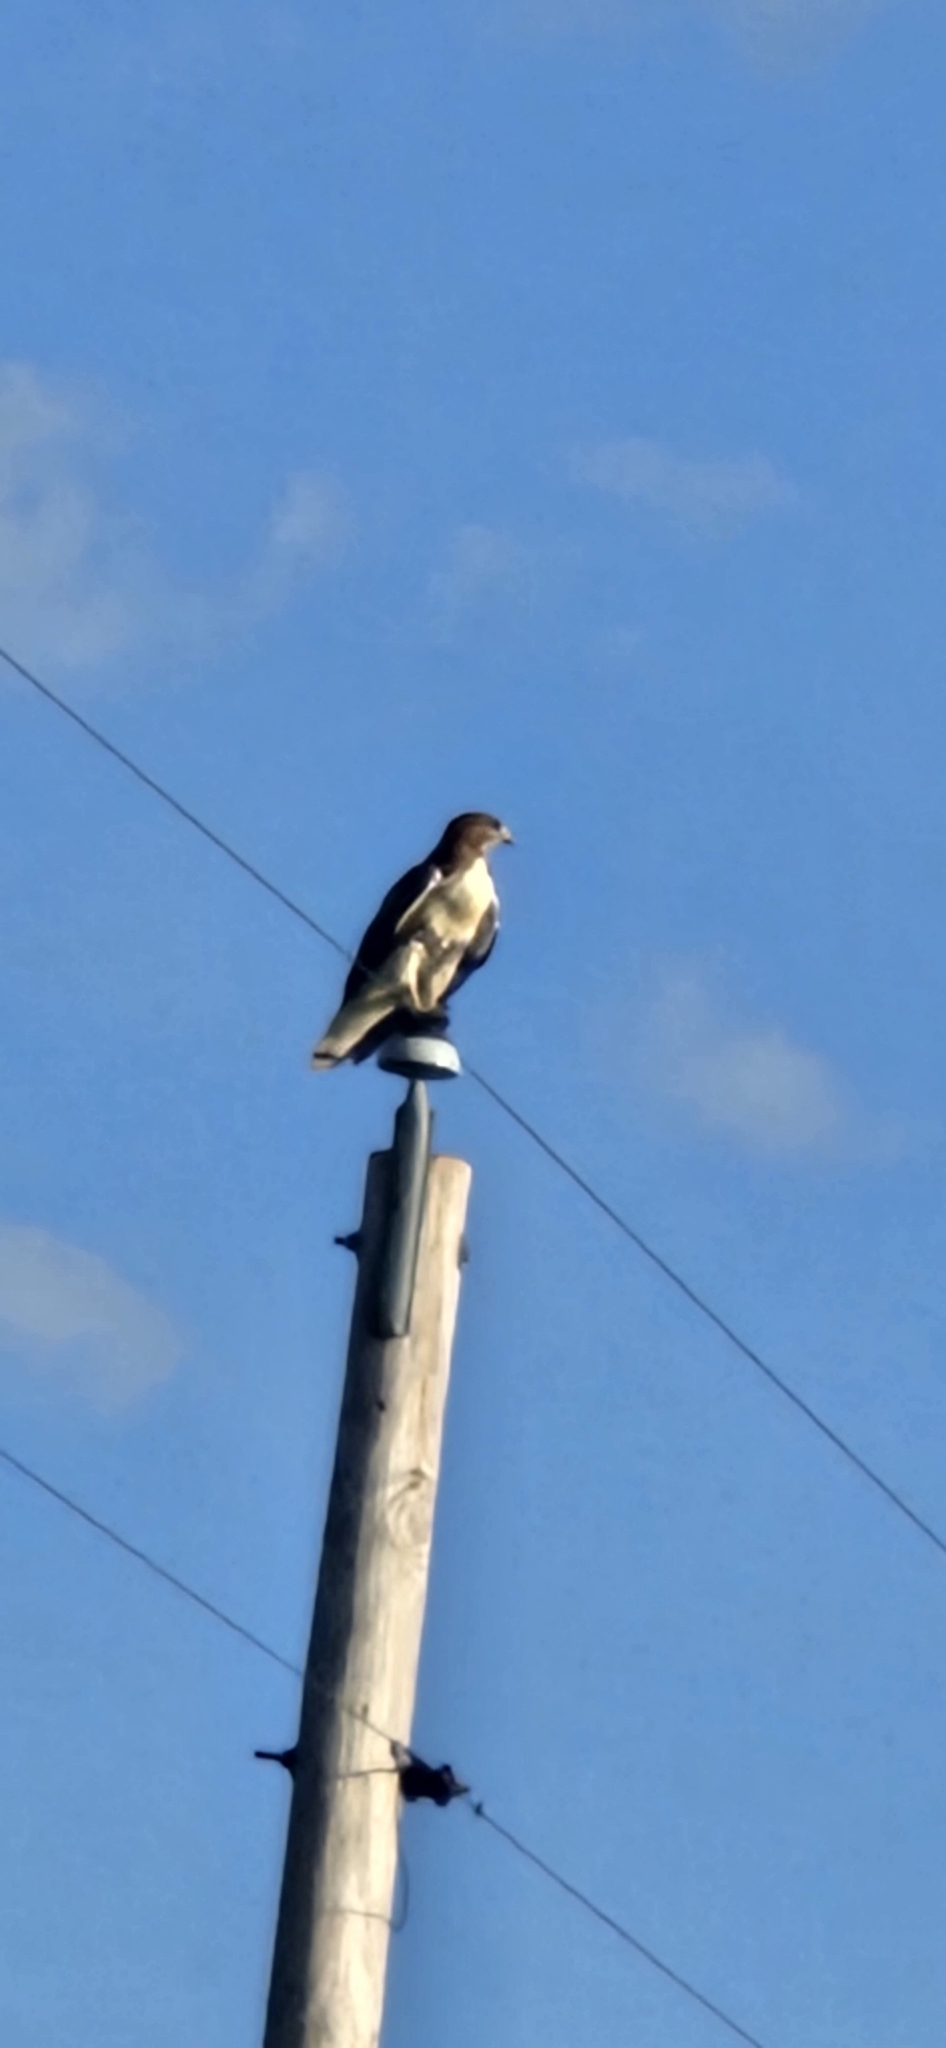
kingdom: Animalia
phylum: Chordata
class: Aves
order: Accipitriformes
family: Accipitridae
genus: Buteo
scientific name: Buteo jamaicensis
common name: Red-tailed hawk
